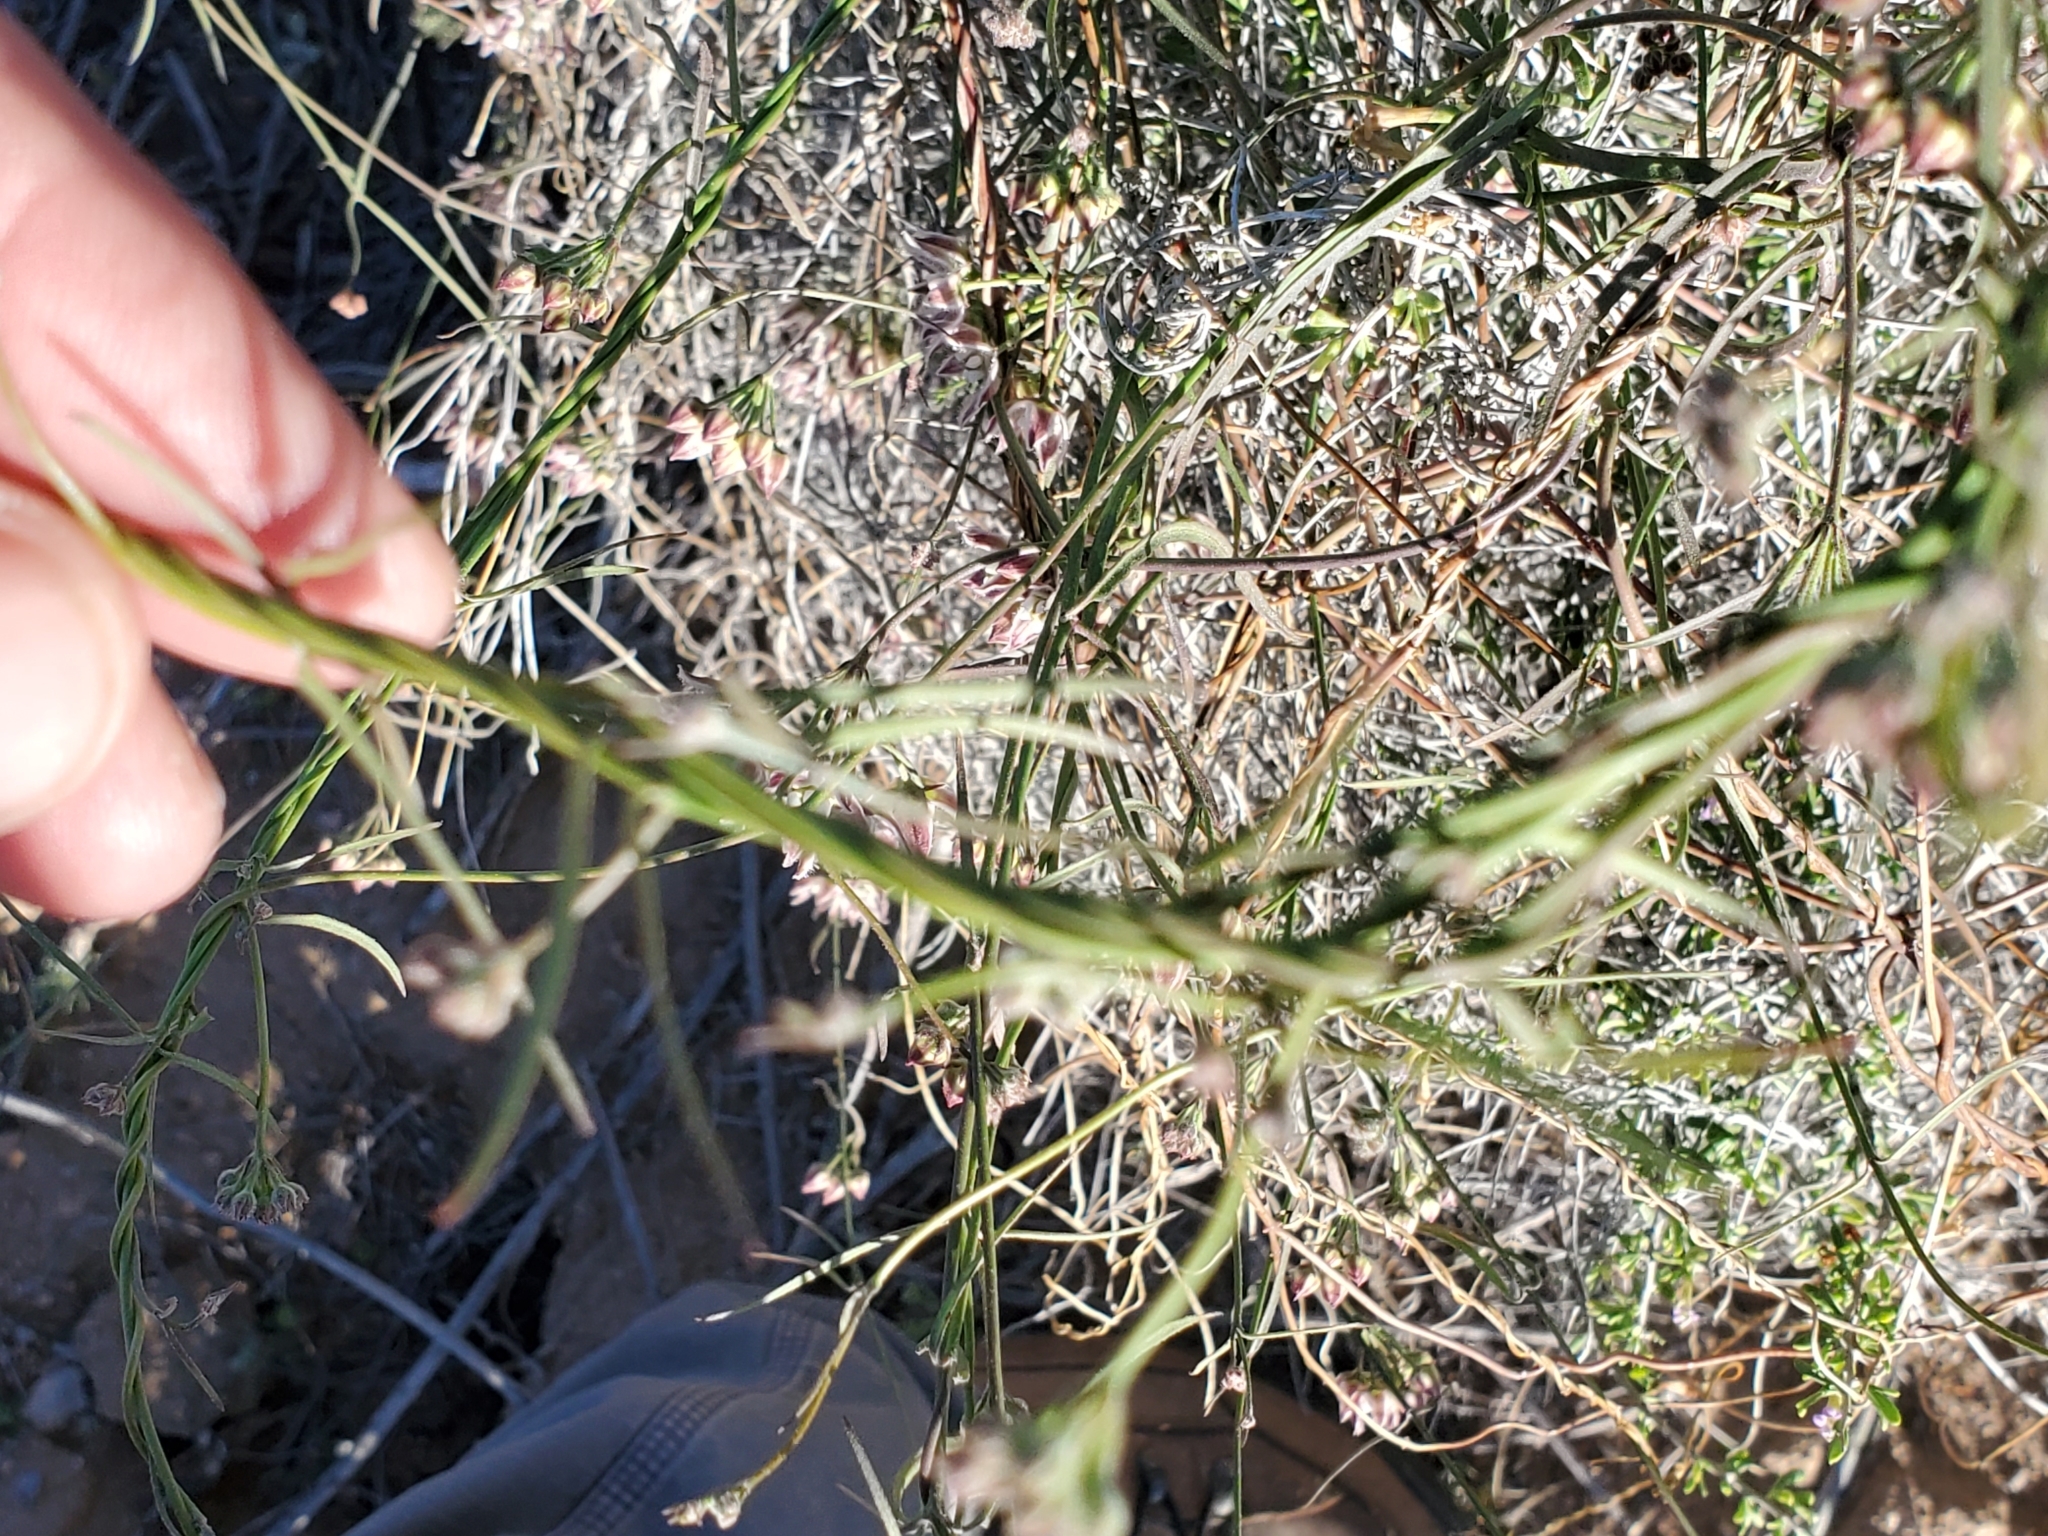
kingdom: Plantae
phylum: Tracheophyta
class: Magnoliopsida
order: Gentianales
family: Apocynaceae
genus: Funastrum
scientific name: Funastrum heterophyllum
